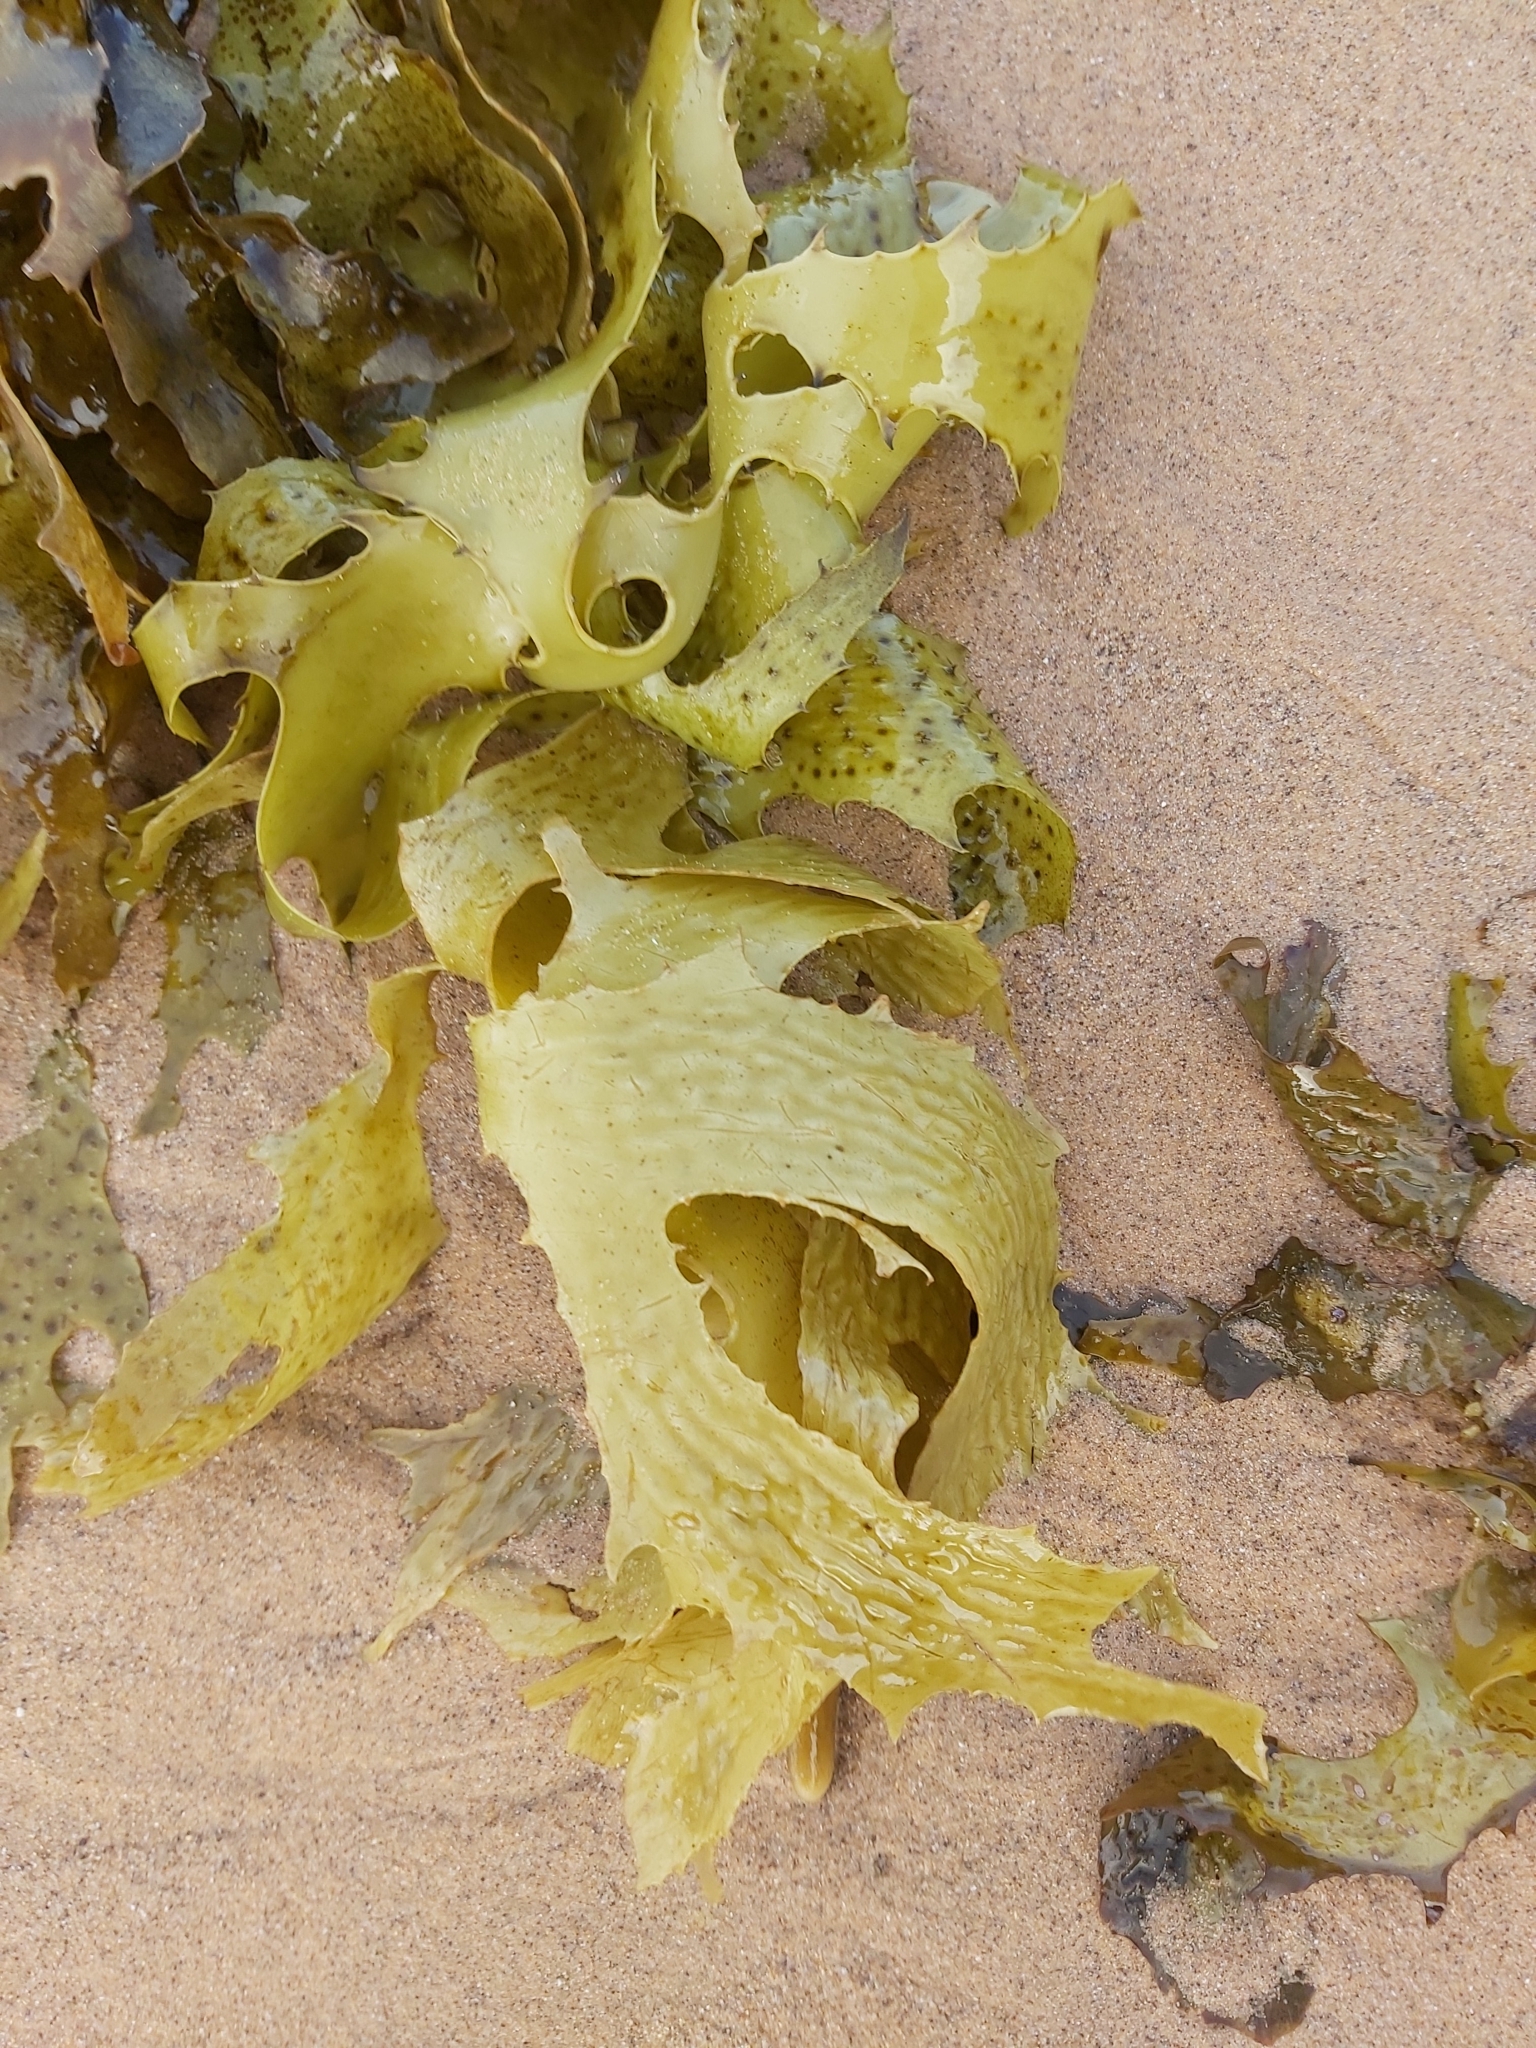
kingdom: Chromista
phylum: Ochrophyta
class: Phaeophyceae
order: Laminariales
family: Lessoniaceae
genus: Ecklonia
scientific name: Ecklonia radiata
